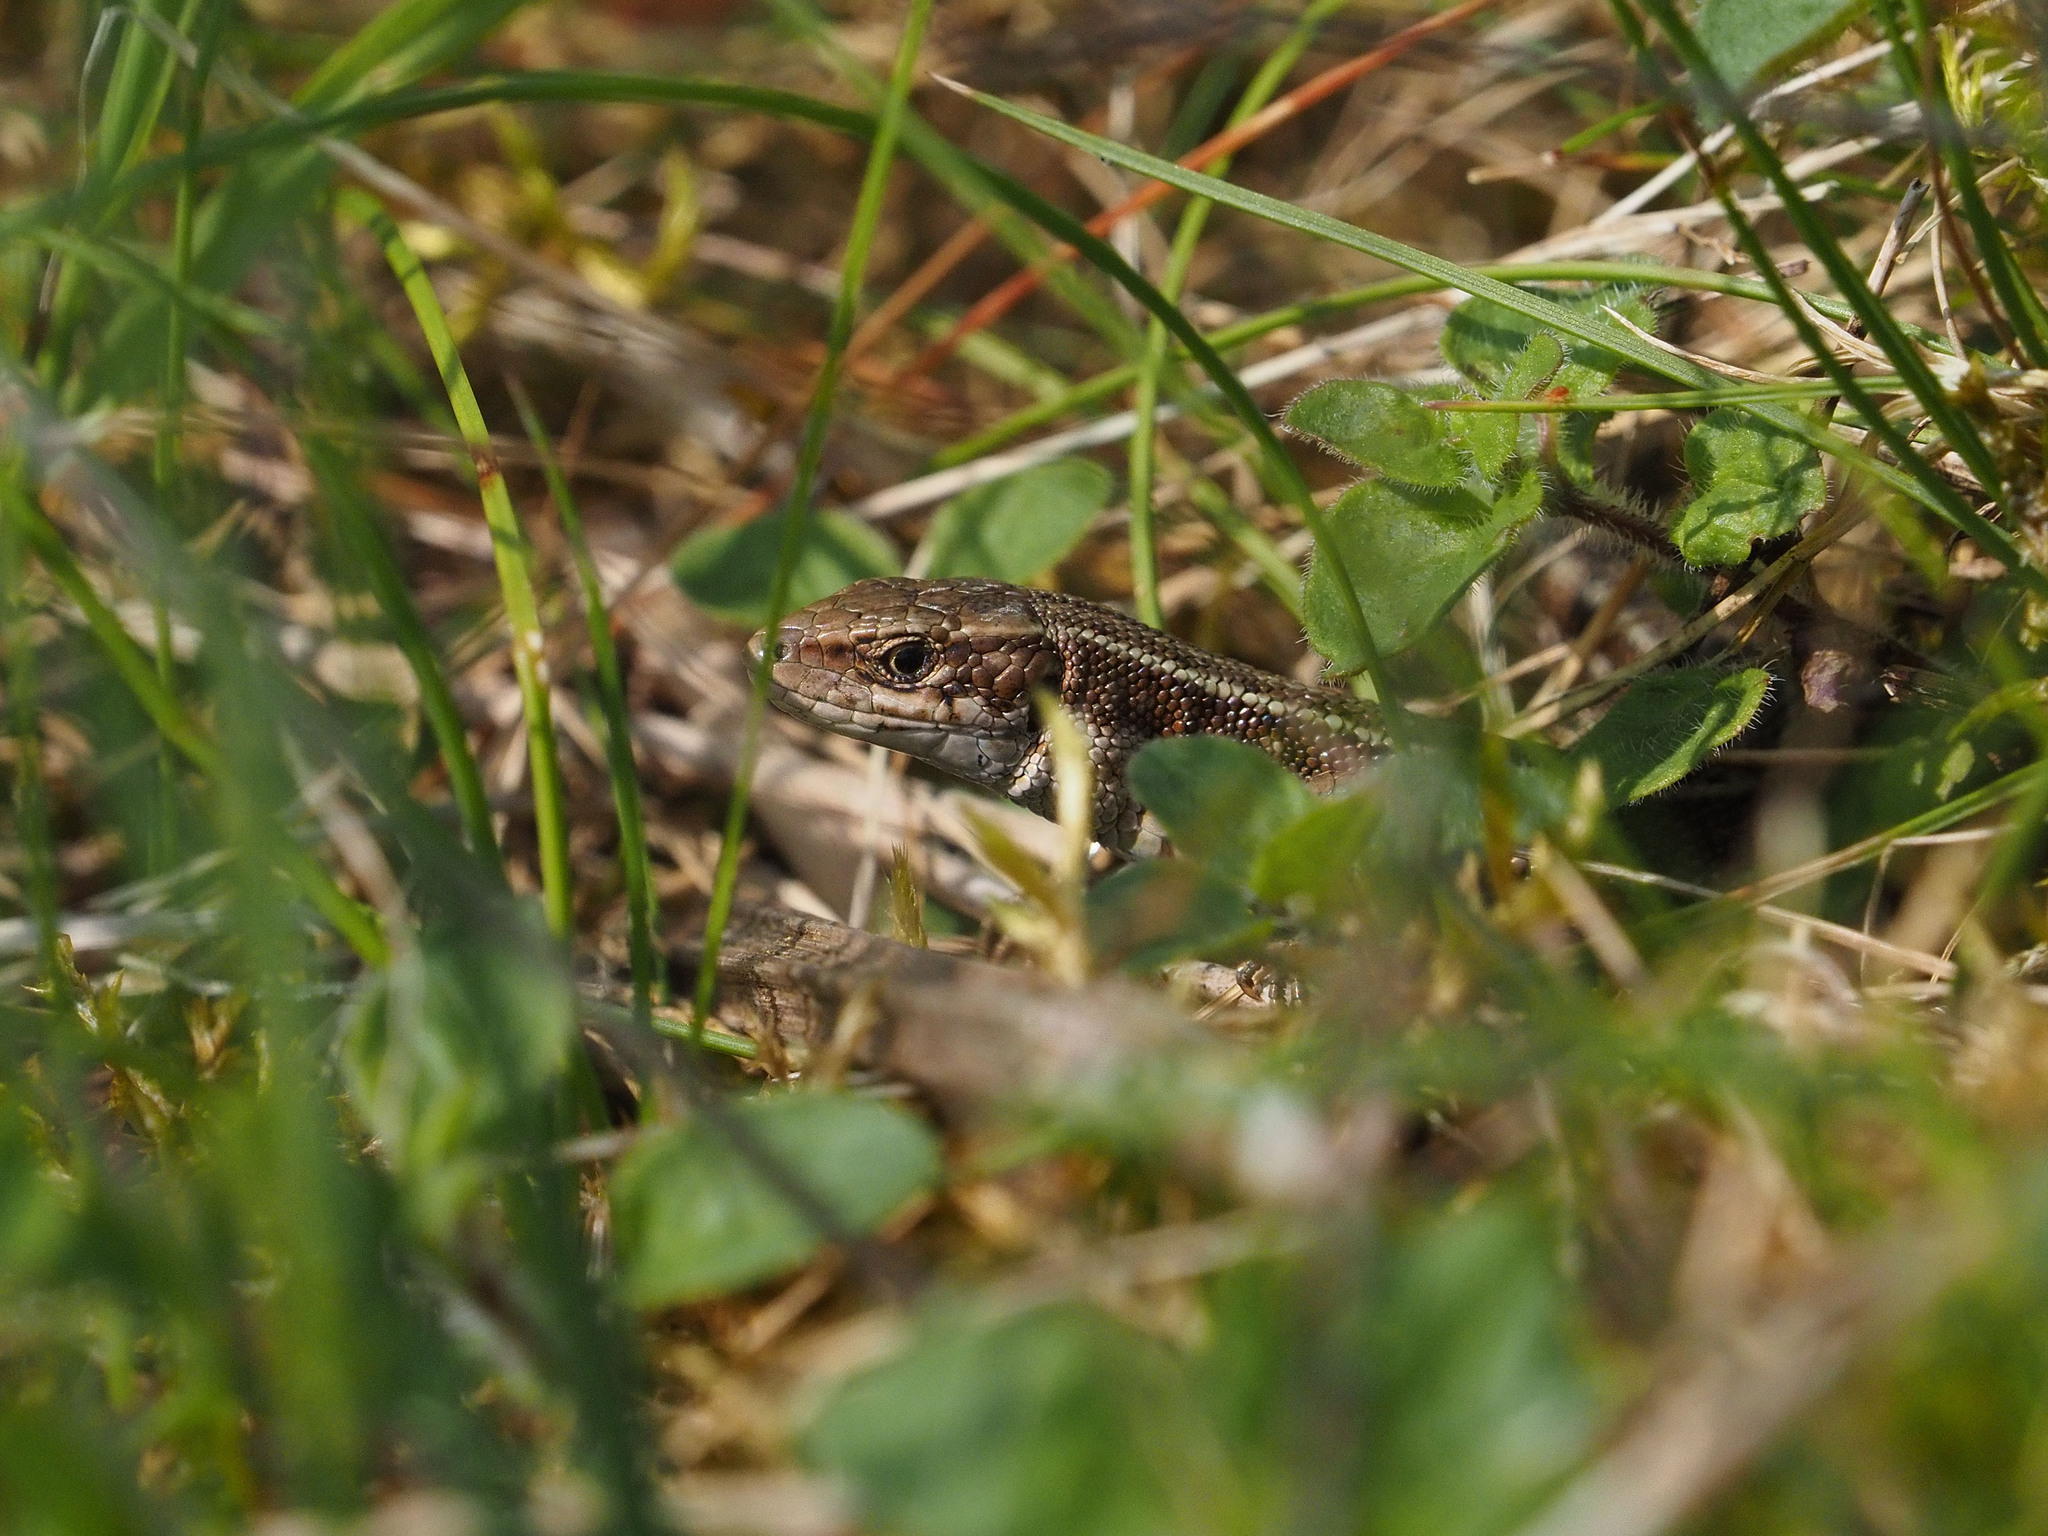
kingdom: Animalia
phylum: Chordata
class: Squamata
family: Lacertidae
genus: Zootoca
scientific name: Zootoca vivipara
